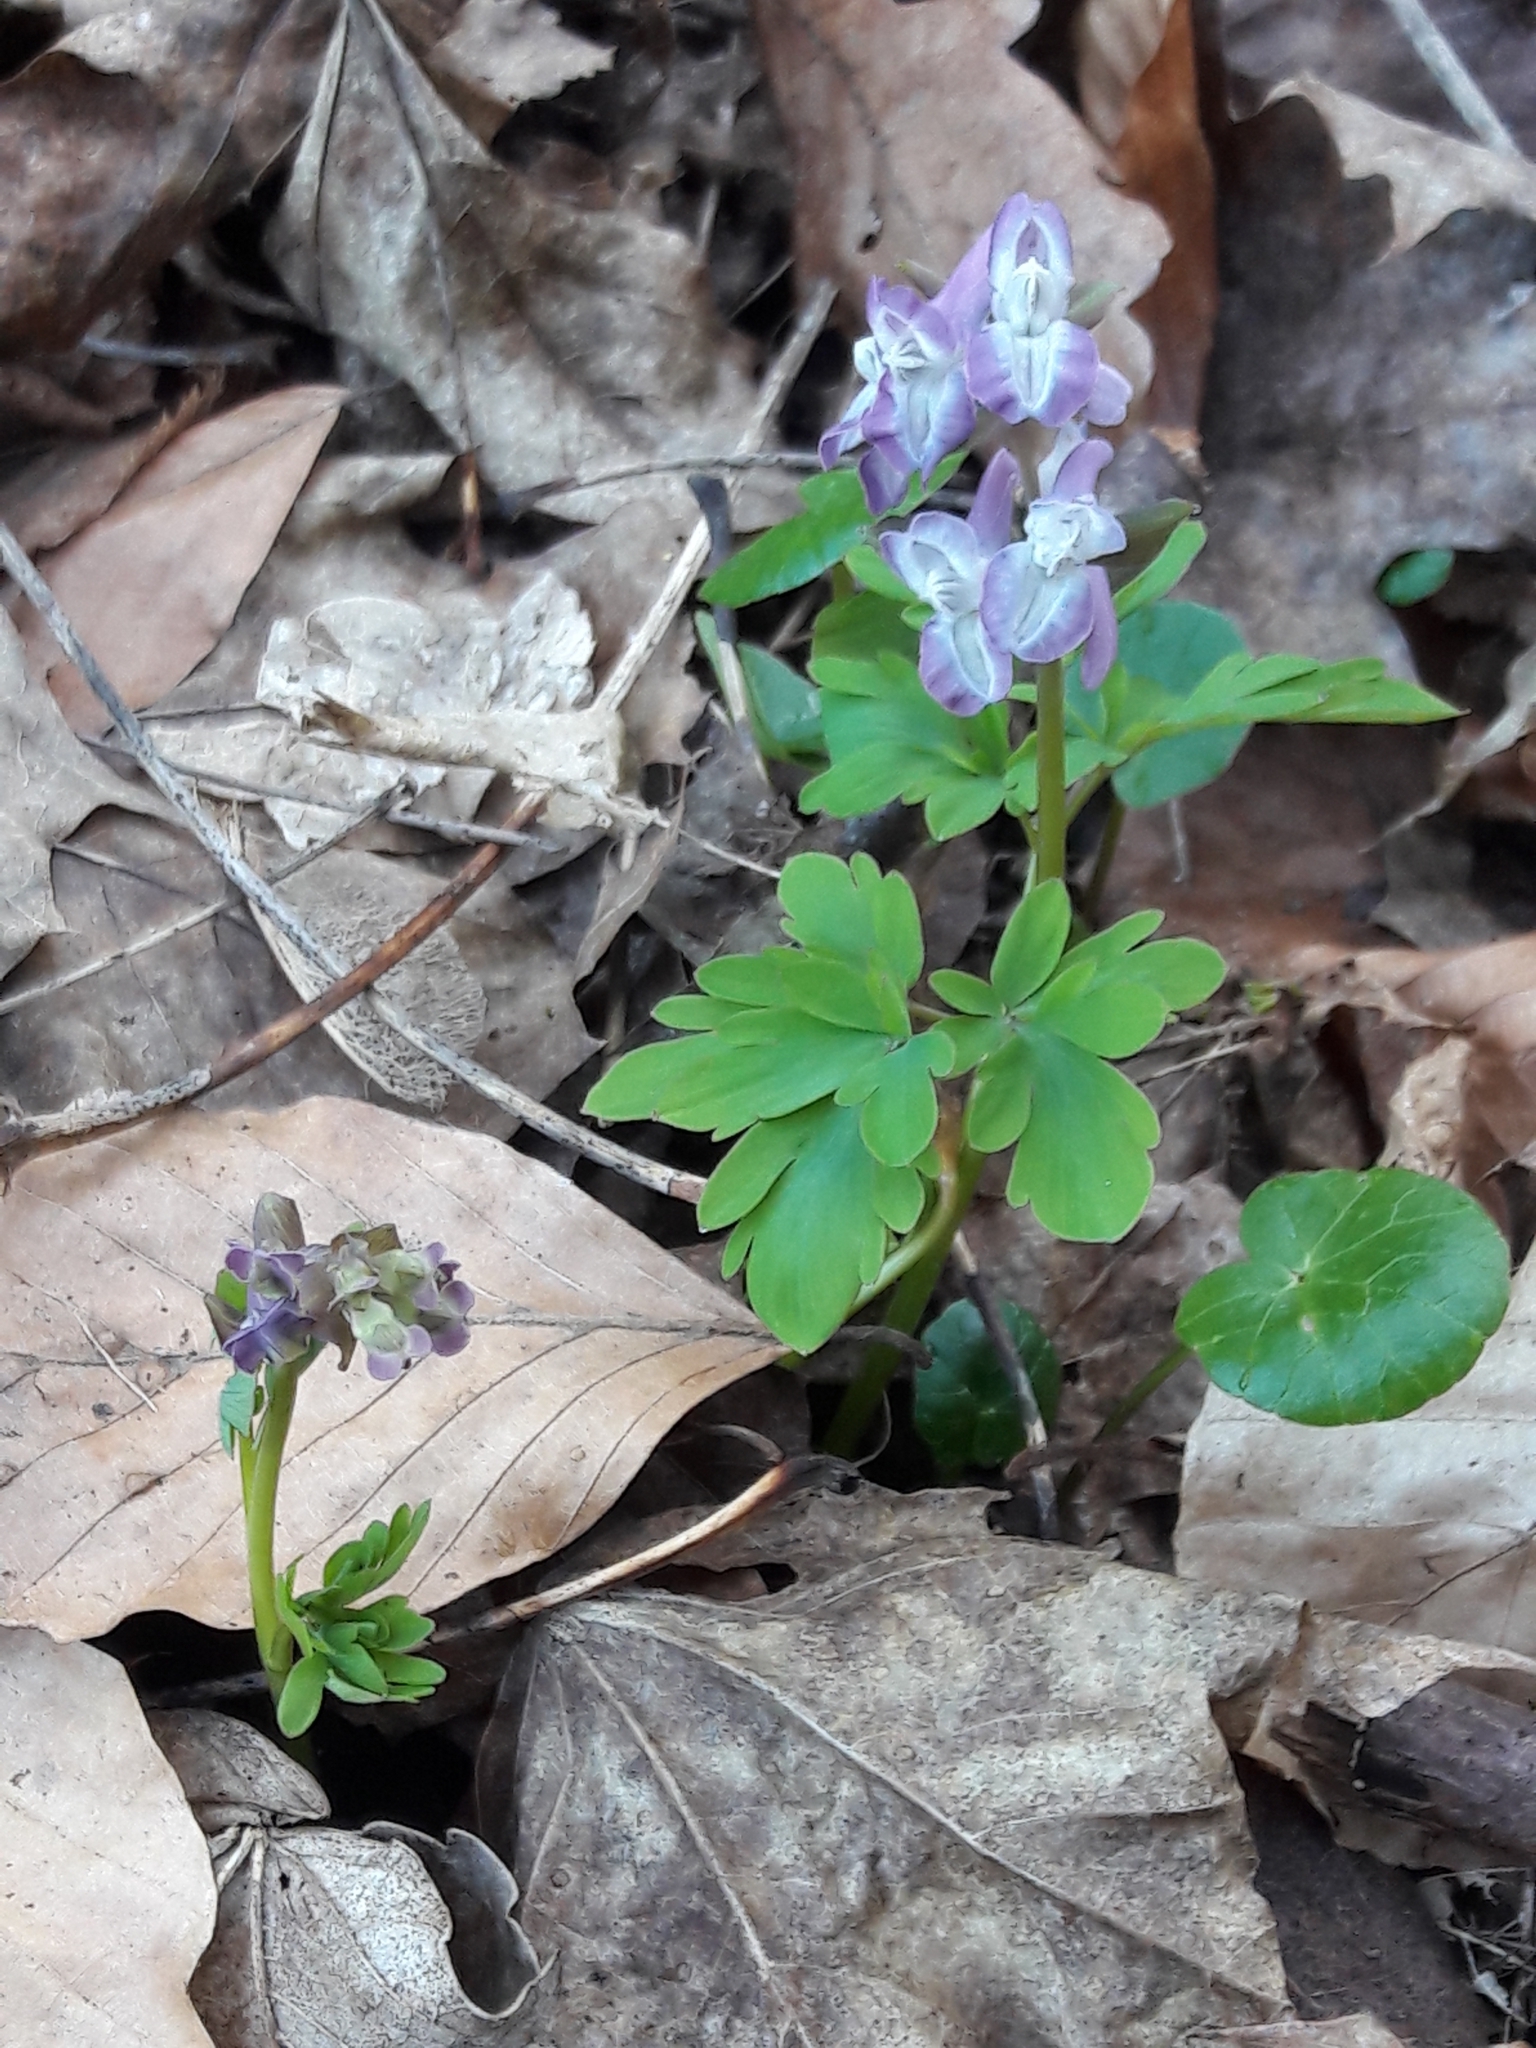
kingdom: Plantae
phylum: Tracheophyta
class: Magnoliopsida
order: Ranunculales
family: Papaveraceae
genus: Corydalis
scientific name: Corydalis cava
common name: Hollowroot
